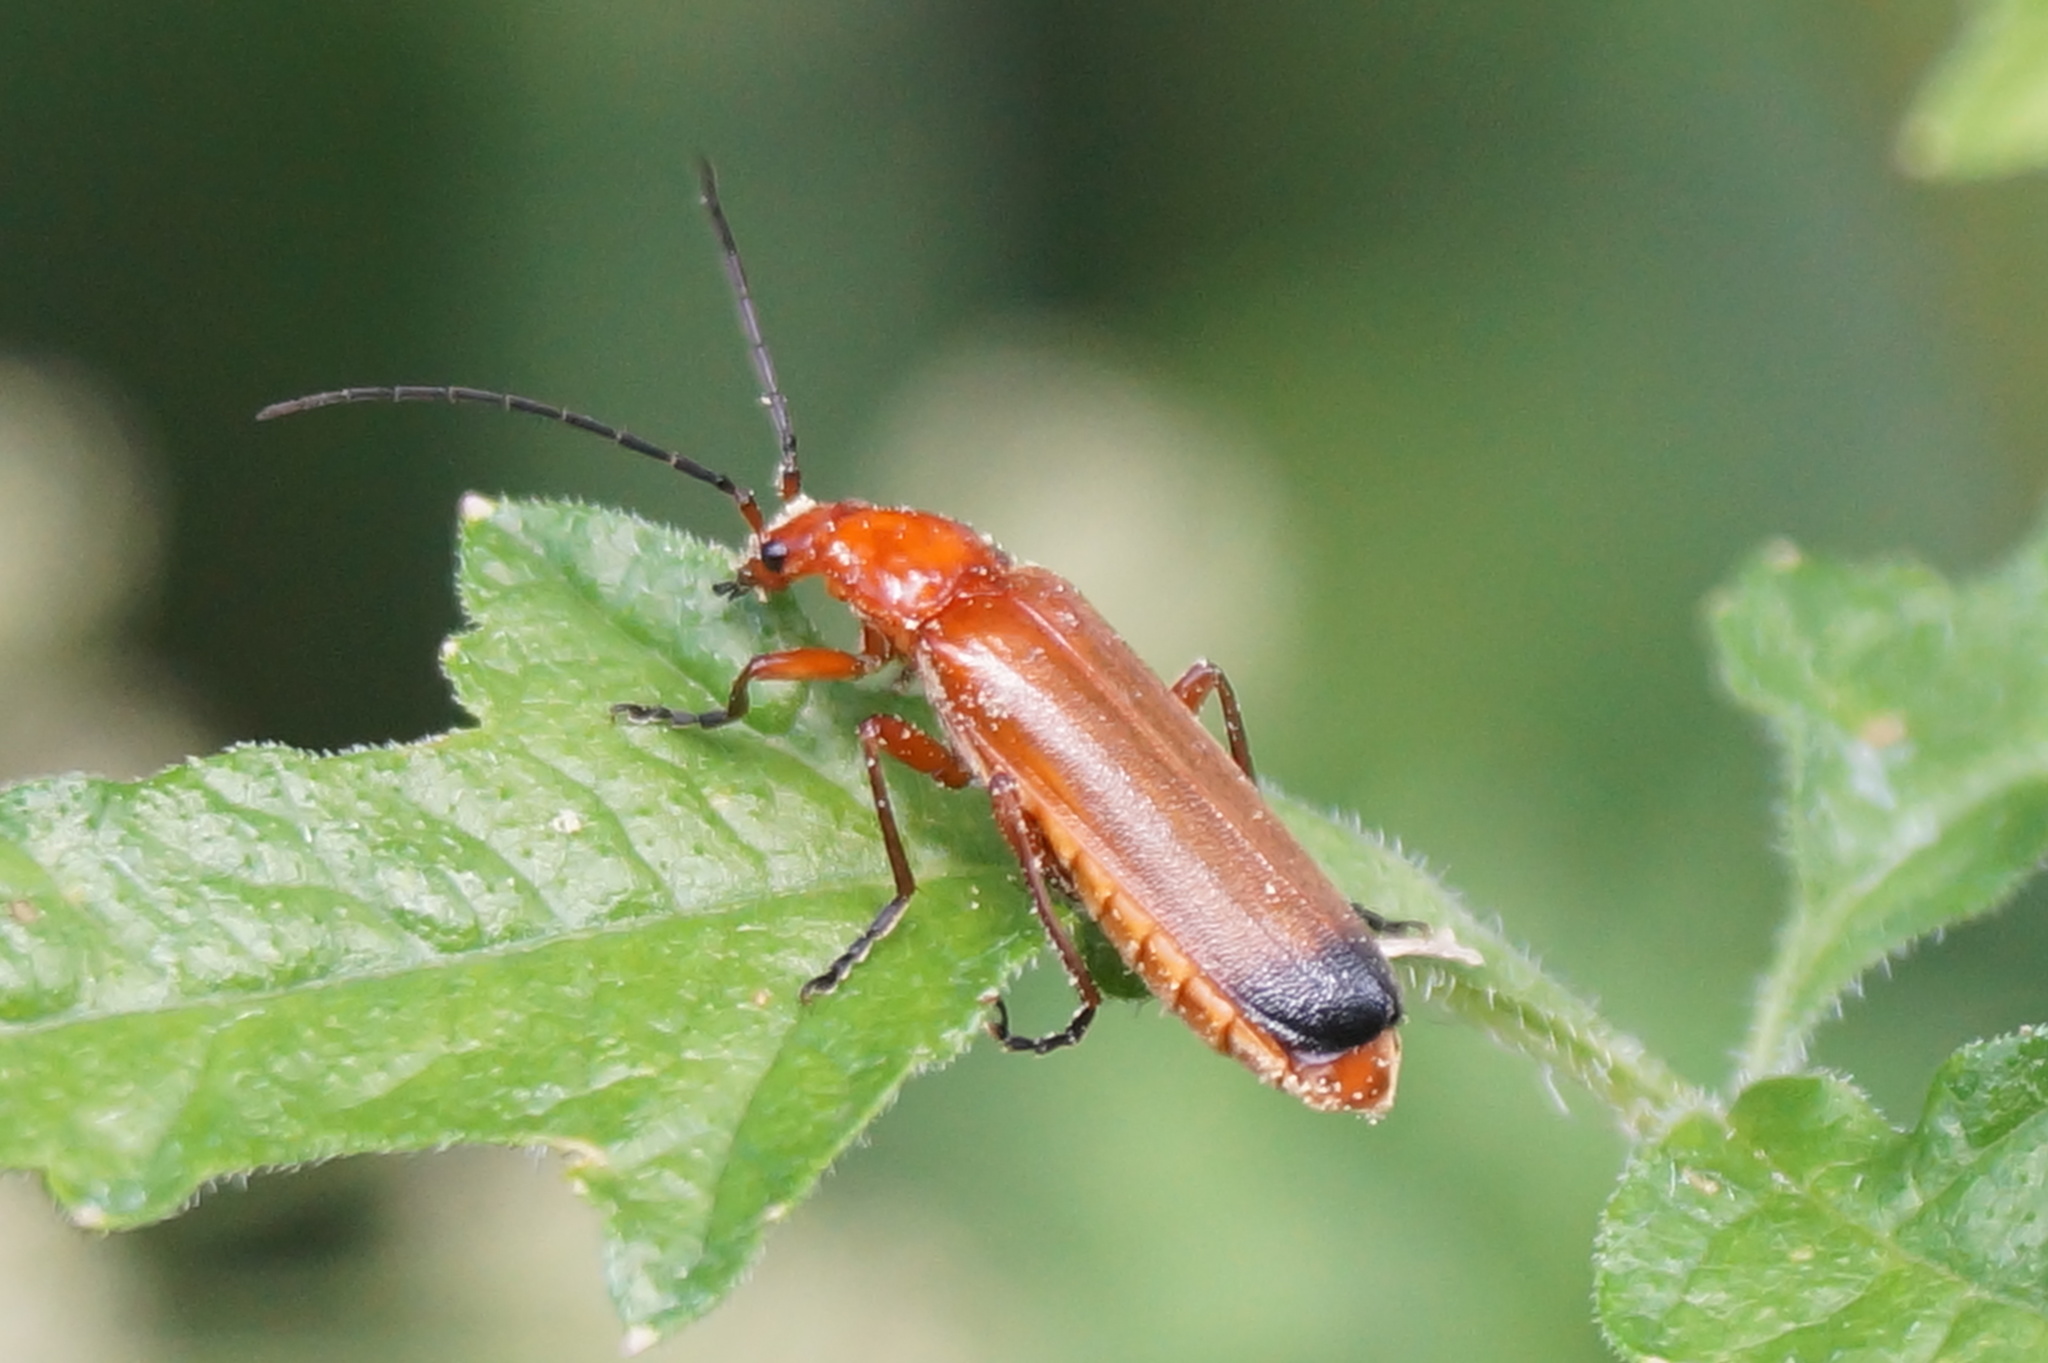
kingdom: Animalia
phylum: Arthropoda
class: Insecta
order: Coleoptera
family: Cantharidae
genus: Rhagonycha
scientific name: Rhagonycha fulva
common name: Common red soldier beetle
